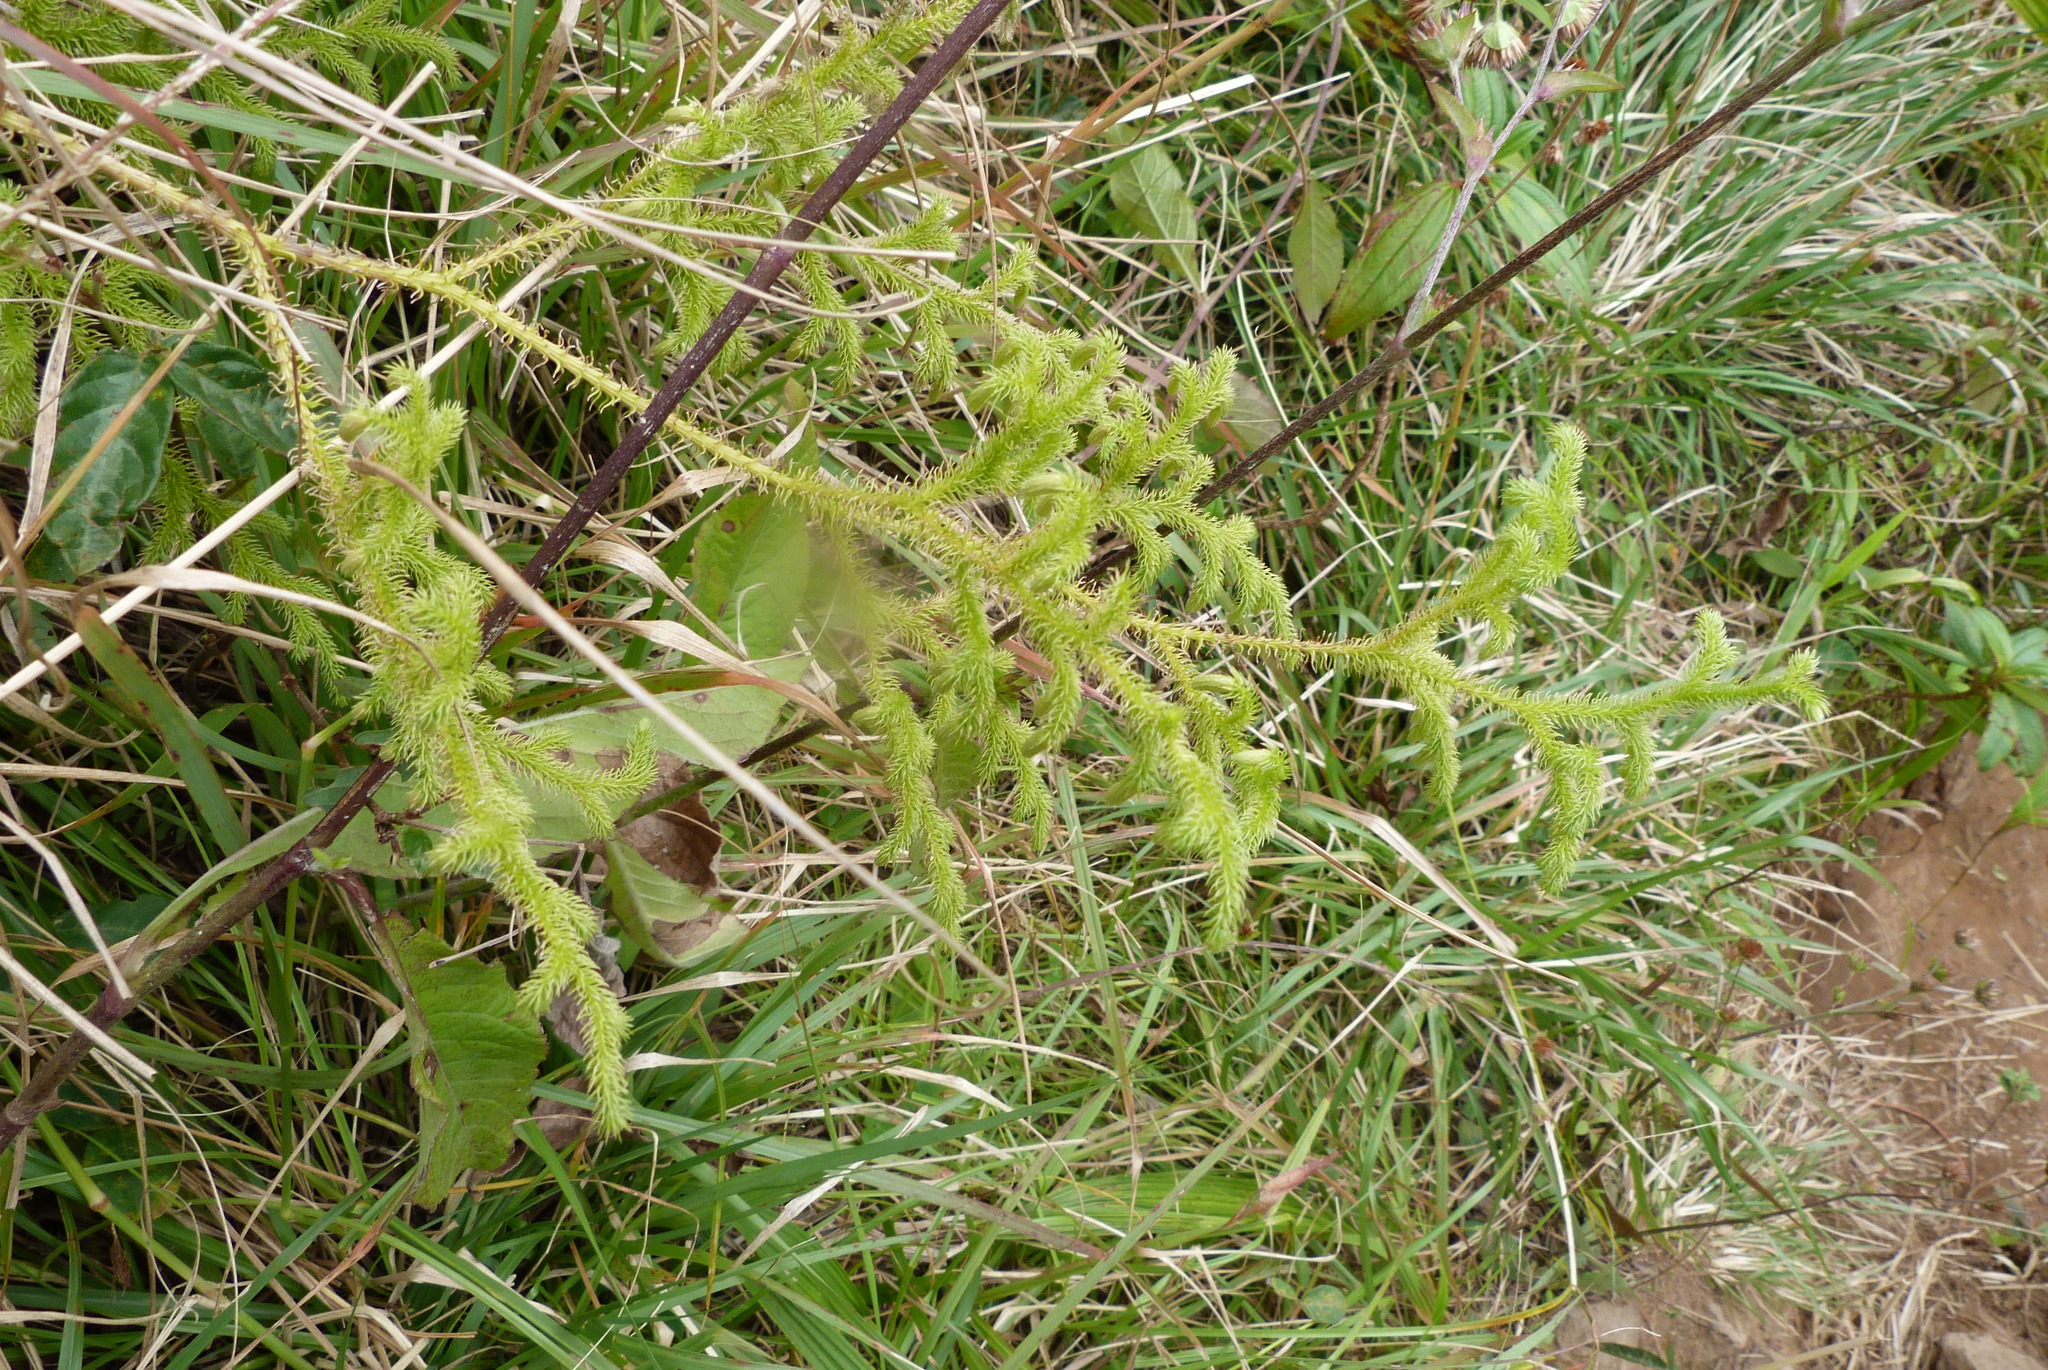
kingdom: Plantae
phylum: Tracheophyta
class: Lycopodiopsida
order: Lycopodiales
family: Lycopodiaceae
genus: Palhinhaea
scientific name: Palhinhaea cernua
